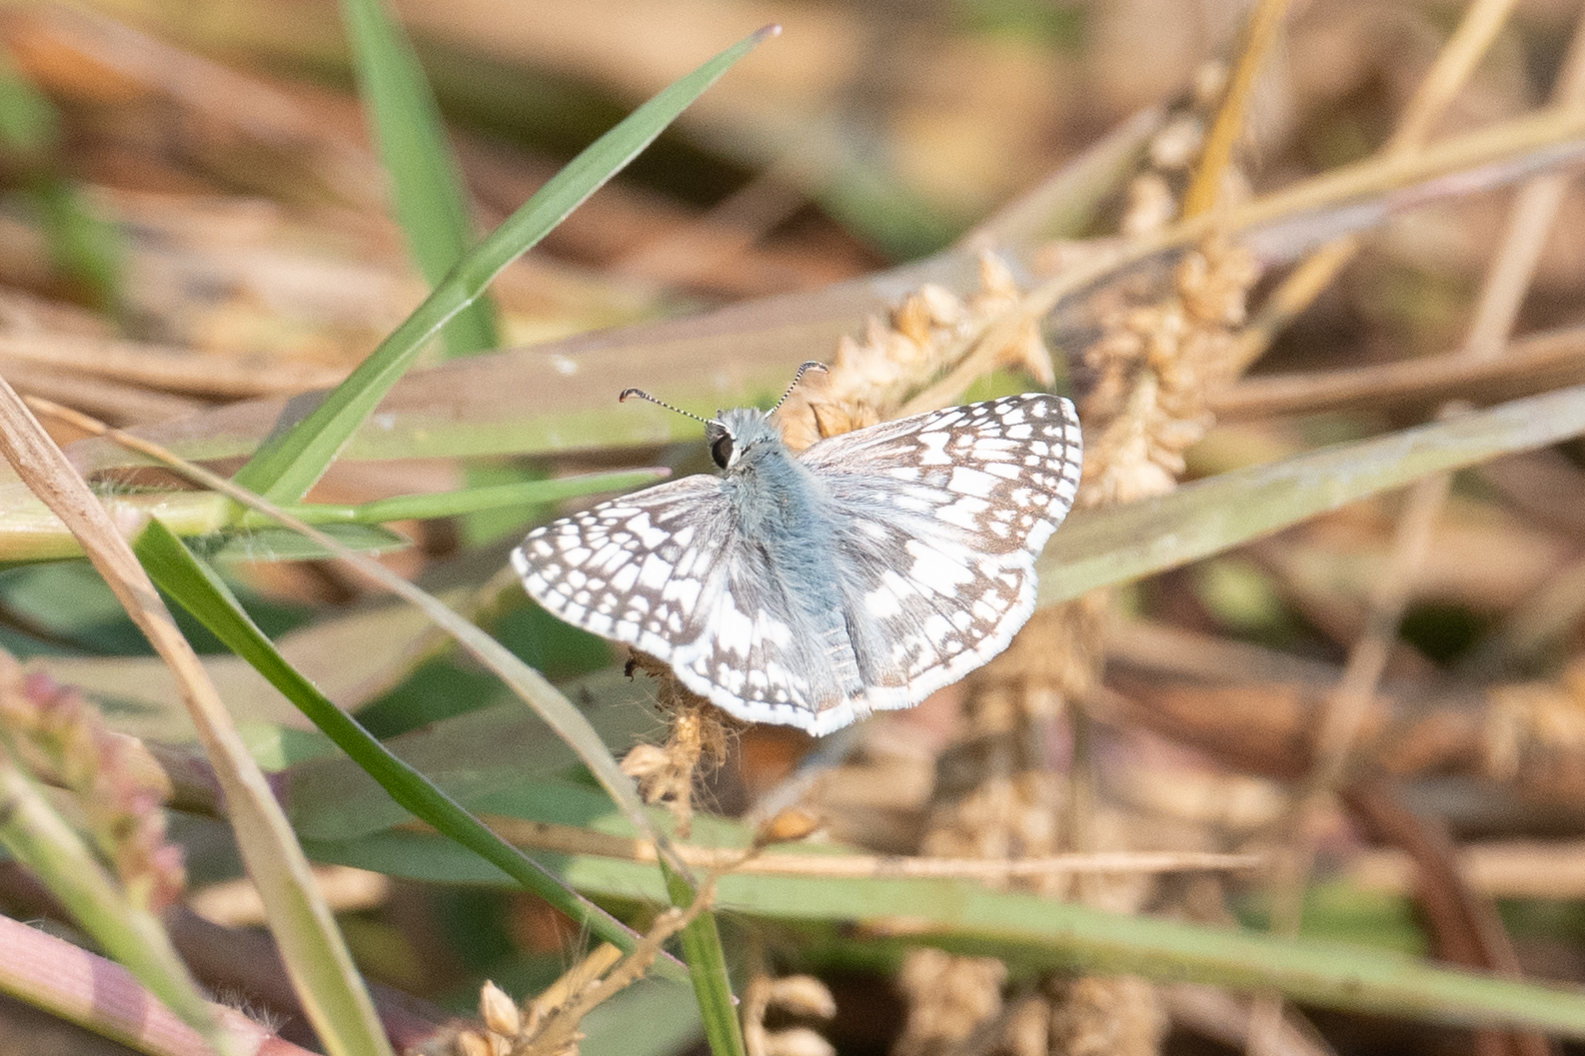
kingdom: Animalia
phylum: Arthropoda
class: Insecta
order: Lepidoptera
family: Hesperiidae
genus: Burnsius
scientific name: Burnsius communis
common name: Common checkered-skipper
